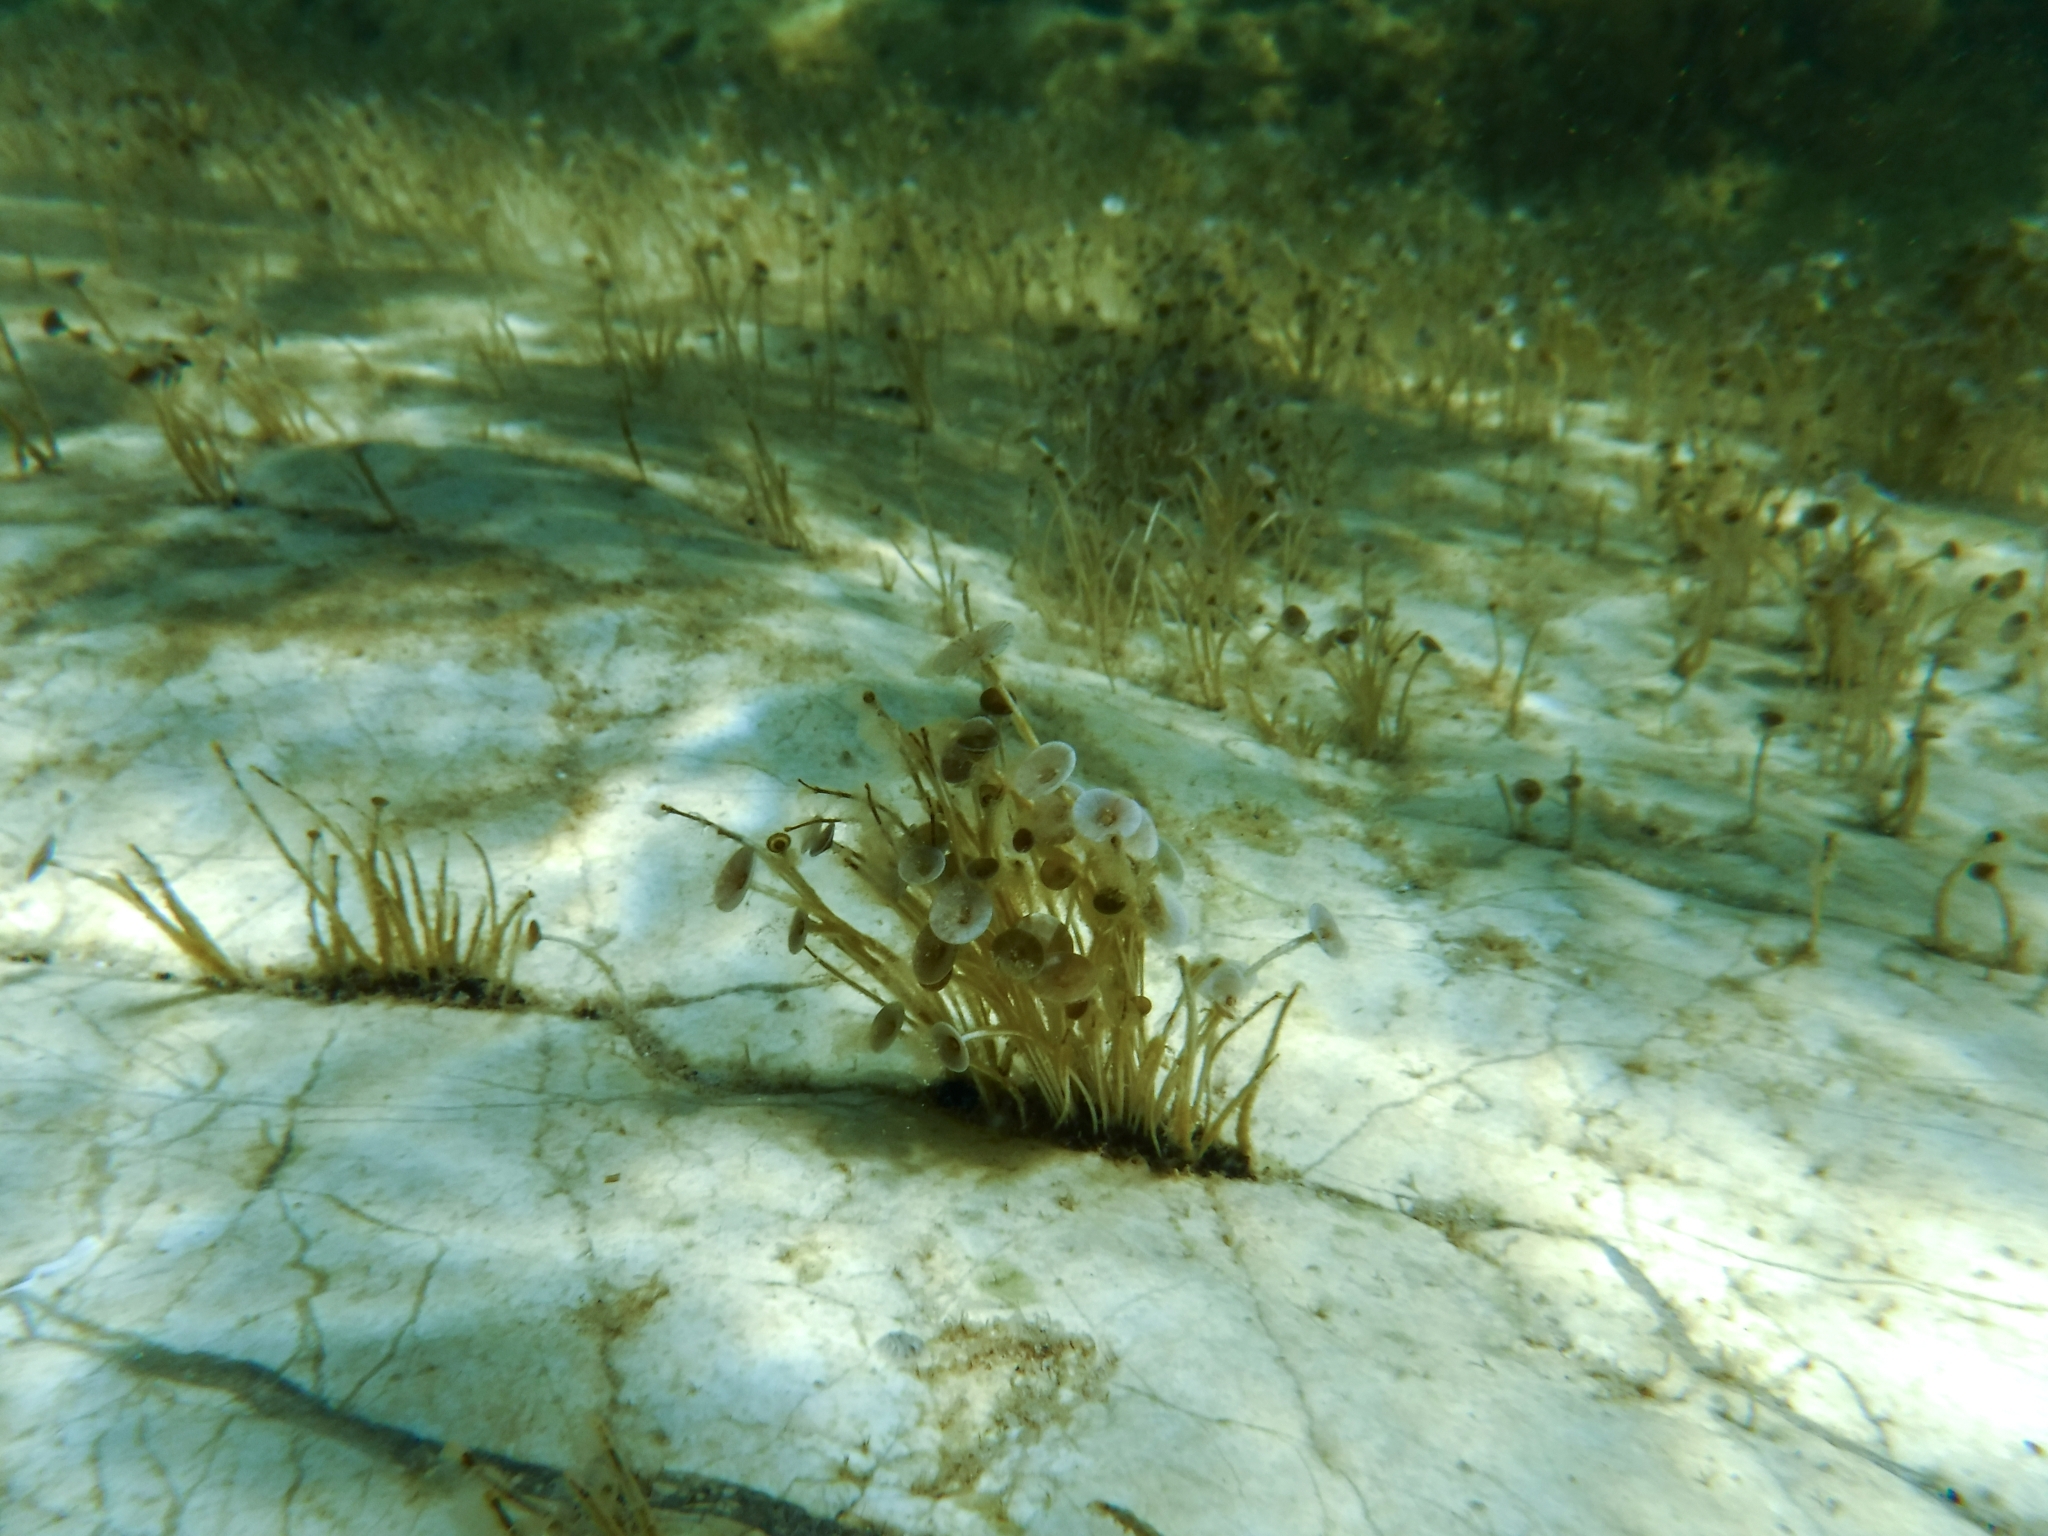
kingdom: Plantae
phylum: Chlorophyta
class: Ulvophyceae
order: Dasycladales
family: Polyphysaceae
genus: Acetabularia
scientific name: Acetabularia acetabulum
